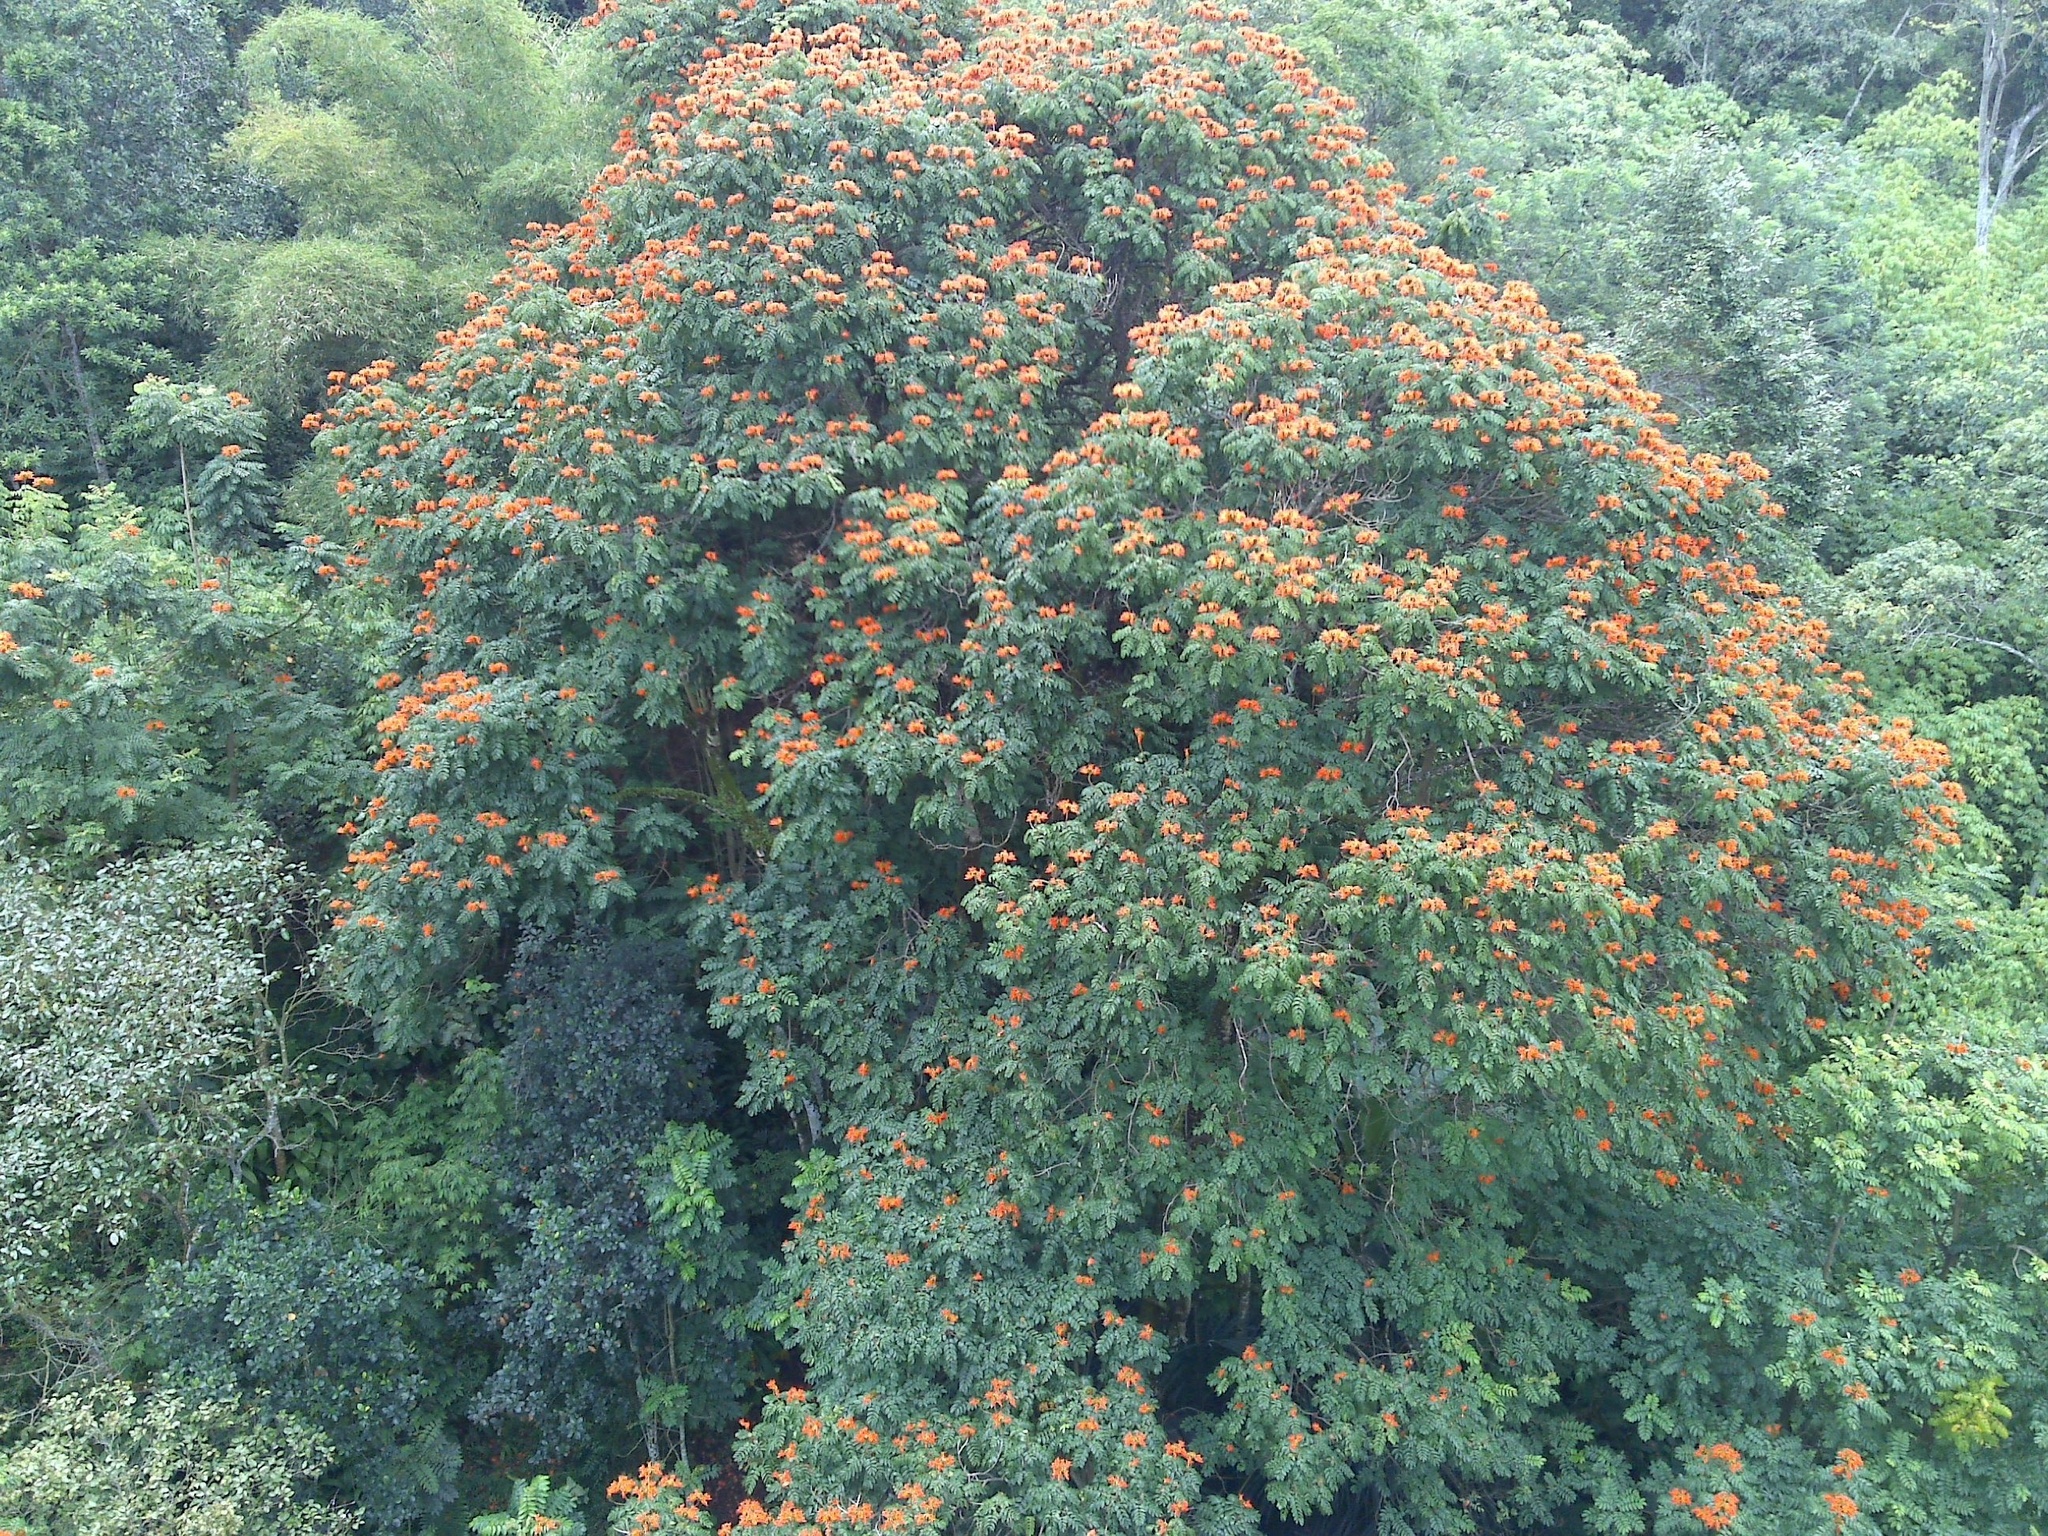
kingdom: Plantae
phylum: Tracheophyta
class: Magnoliopsida
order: Lamiales
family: Bignoniaceae
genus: Spathodea
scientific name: Spathodea campanulata
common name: African tuliptree
